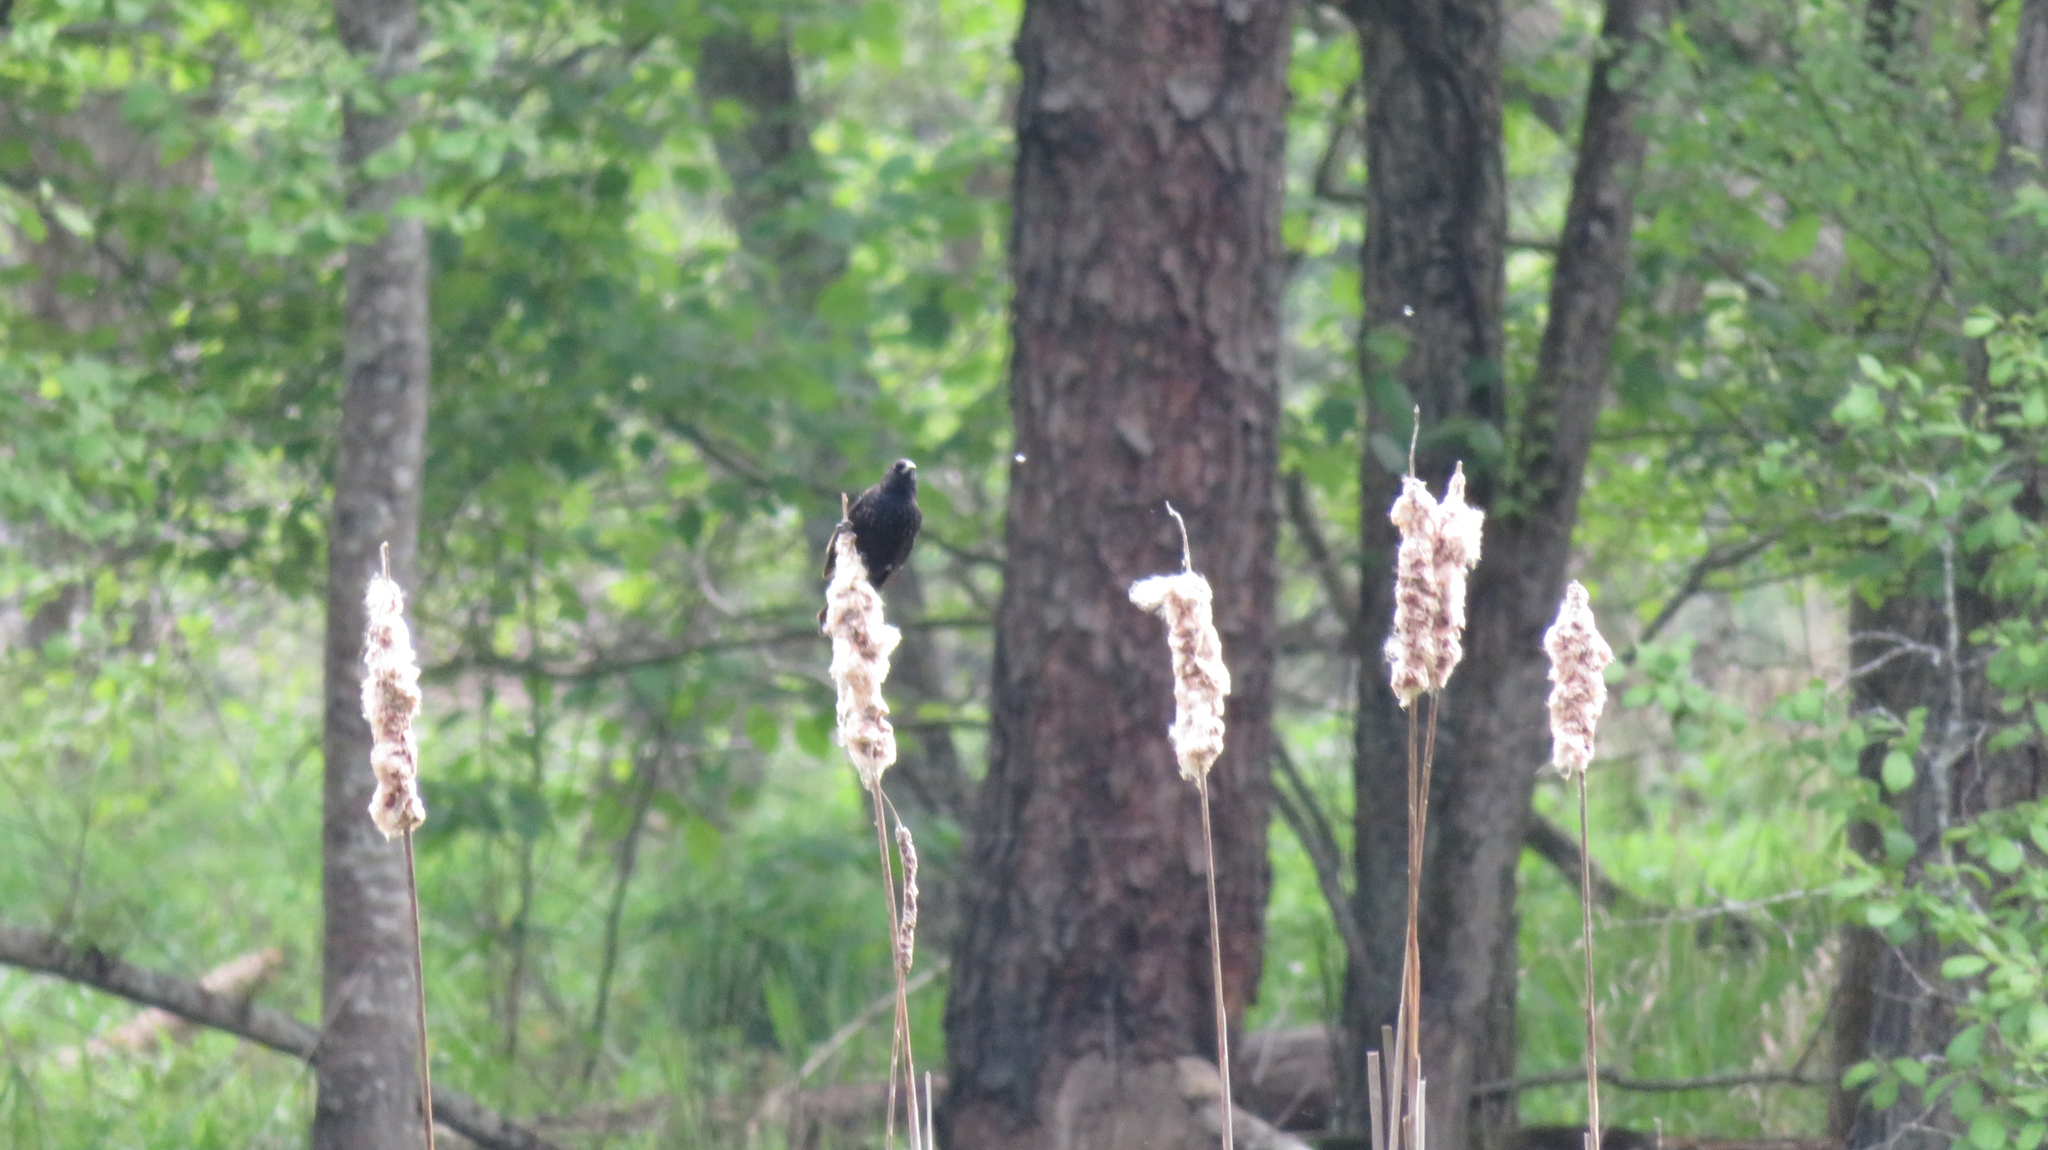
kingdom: Animalia
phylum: Chordata
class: Aves
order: Passeriformes
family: Icteridae
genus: Agelaius
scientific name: Agelaius phoeniceus
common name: Red-winged blackbird
